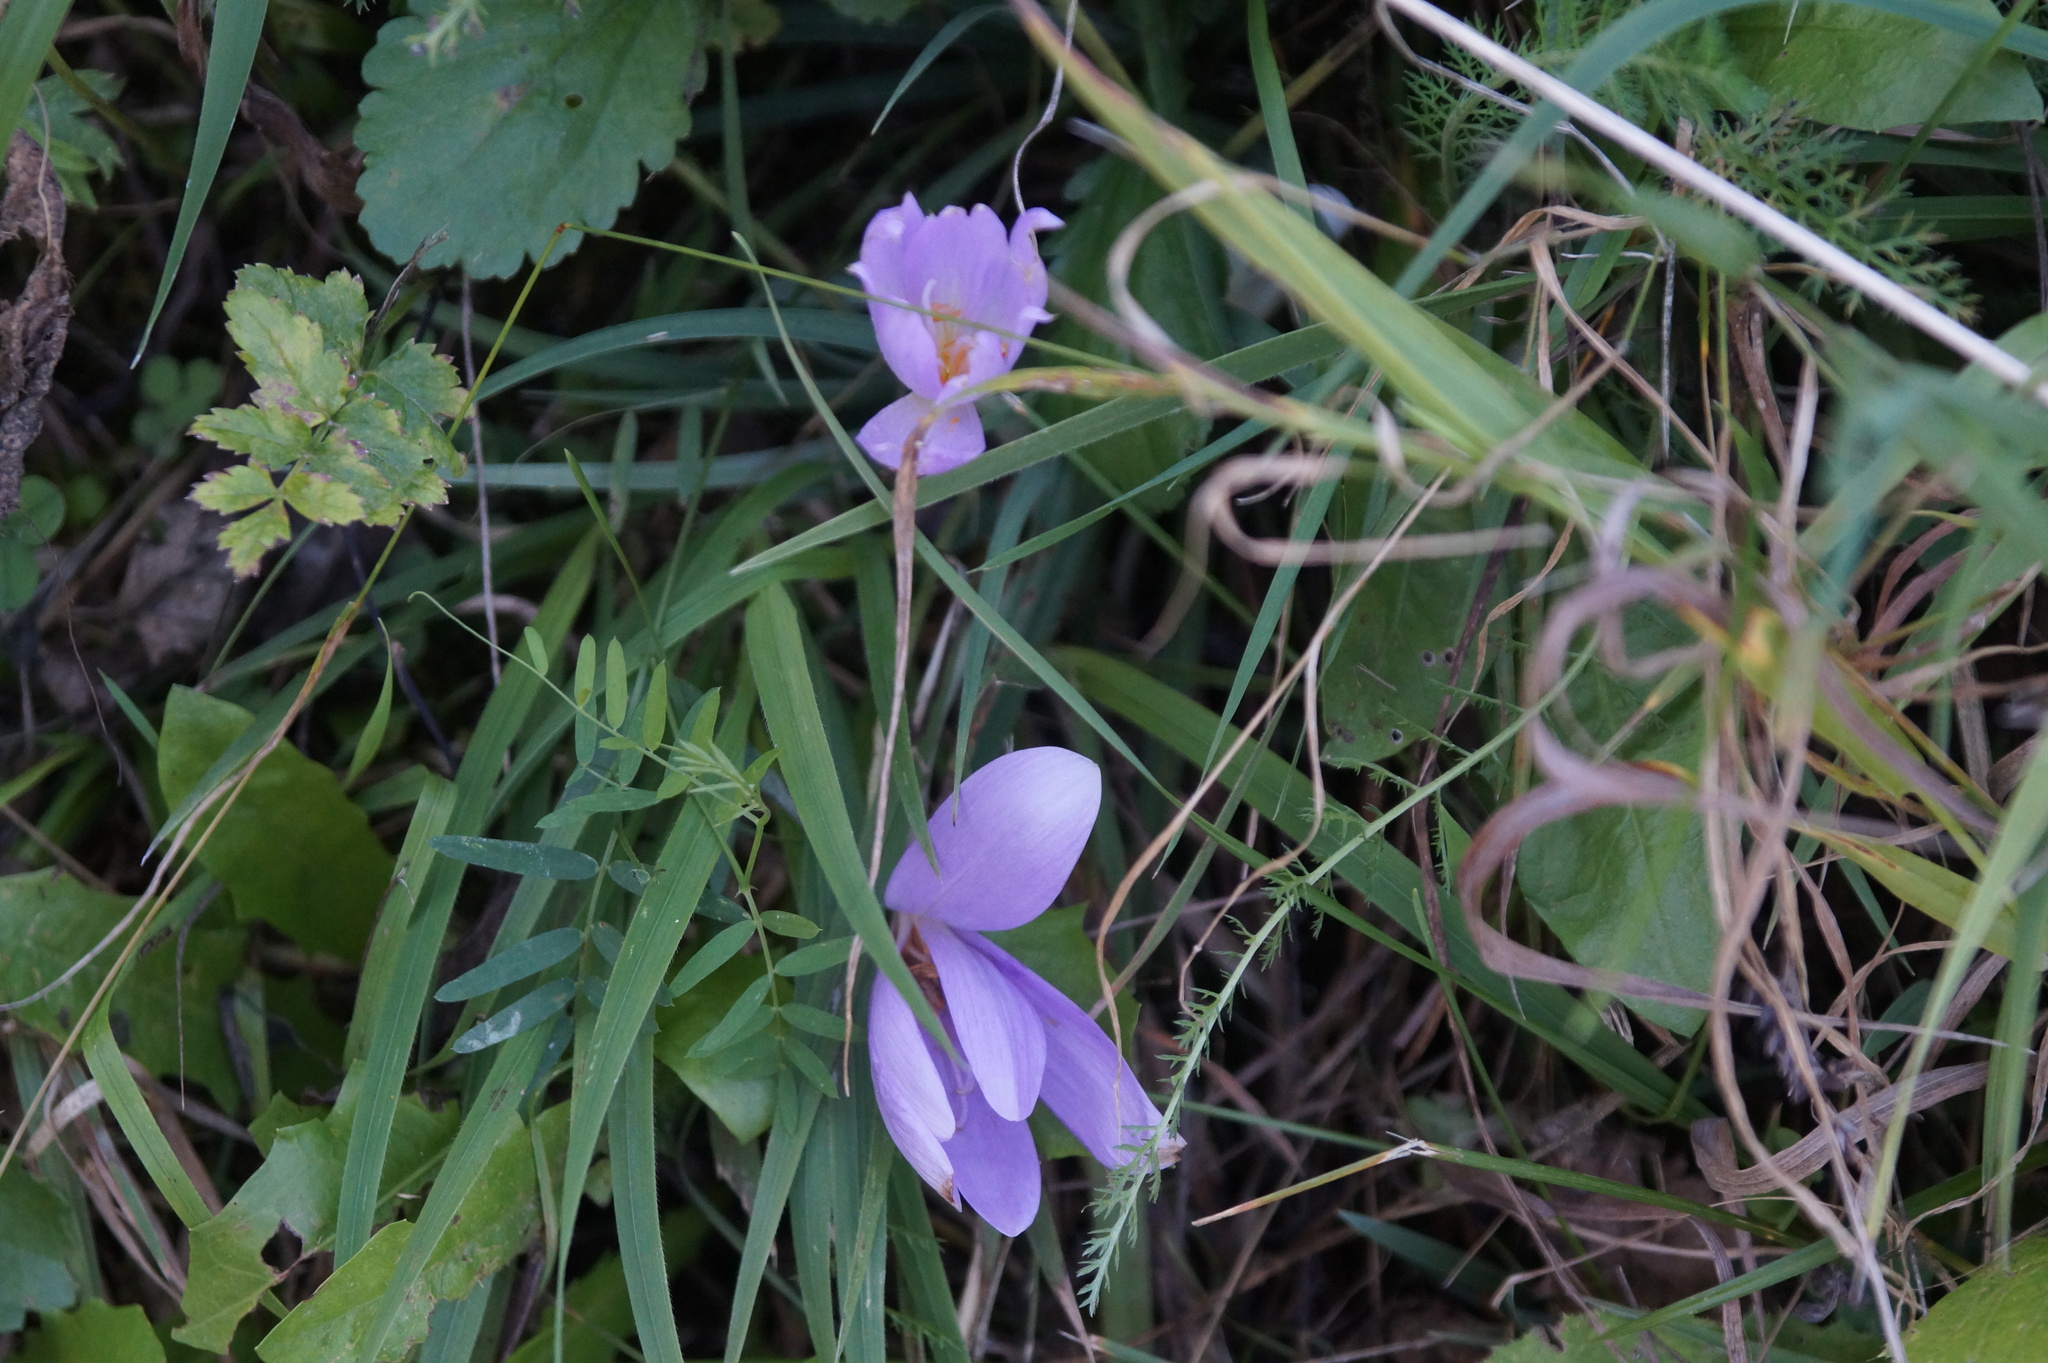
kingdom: Plantae
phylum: Tracheophyta
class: Liliopsida
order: Liliales
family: Colchicaceae
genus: Colchicum
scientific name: Colchicum autumnale
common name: Autumn crocus
